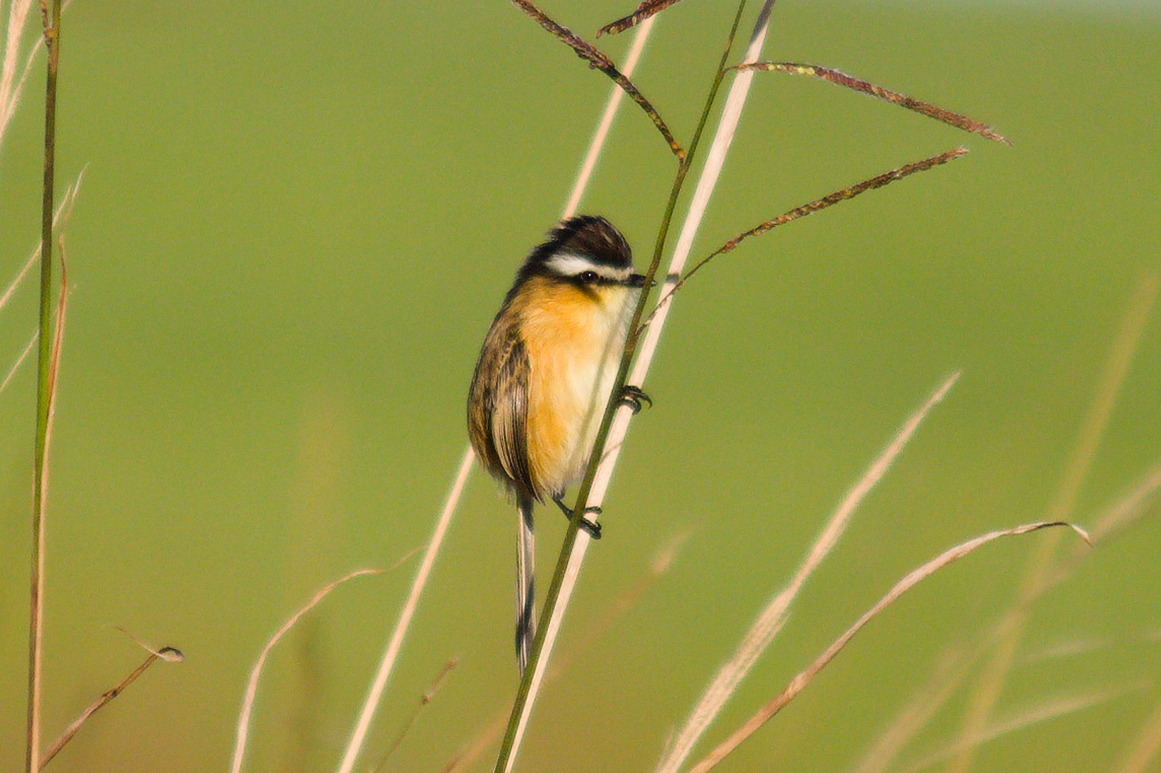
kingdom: Animalia
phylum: Chordata
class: Aves
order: Passeriformes
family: Tyrannidae
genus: Culicivora
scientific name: Culicivora caudacuta
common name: Sharp-tailed grass tyrant
